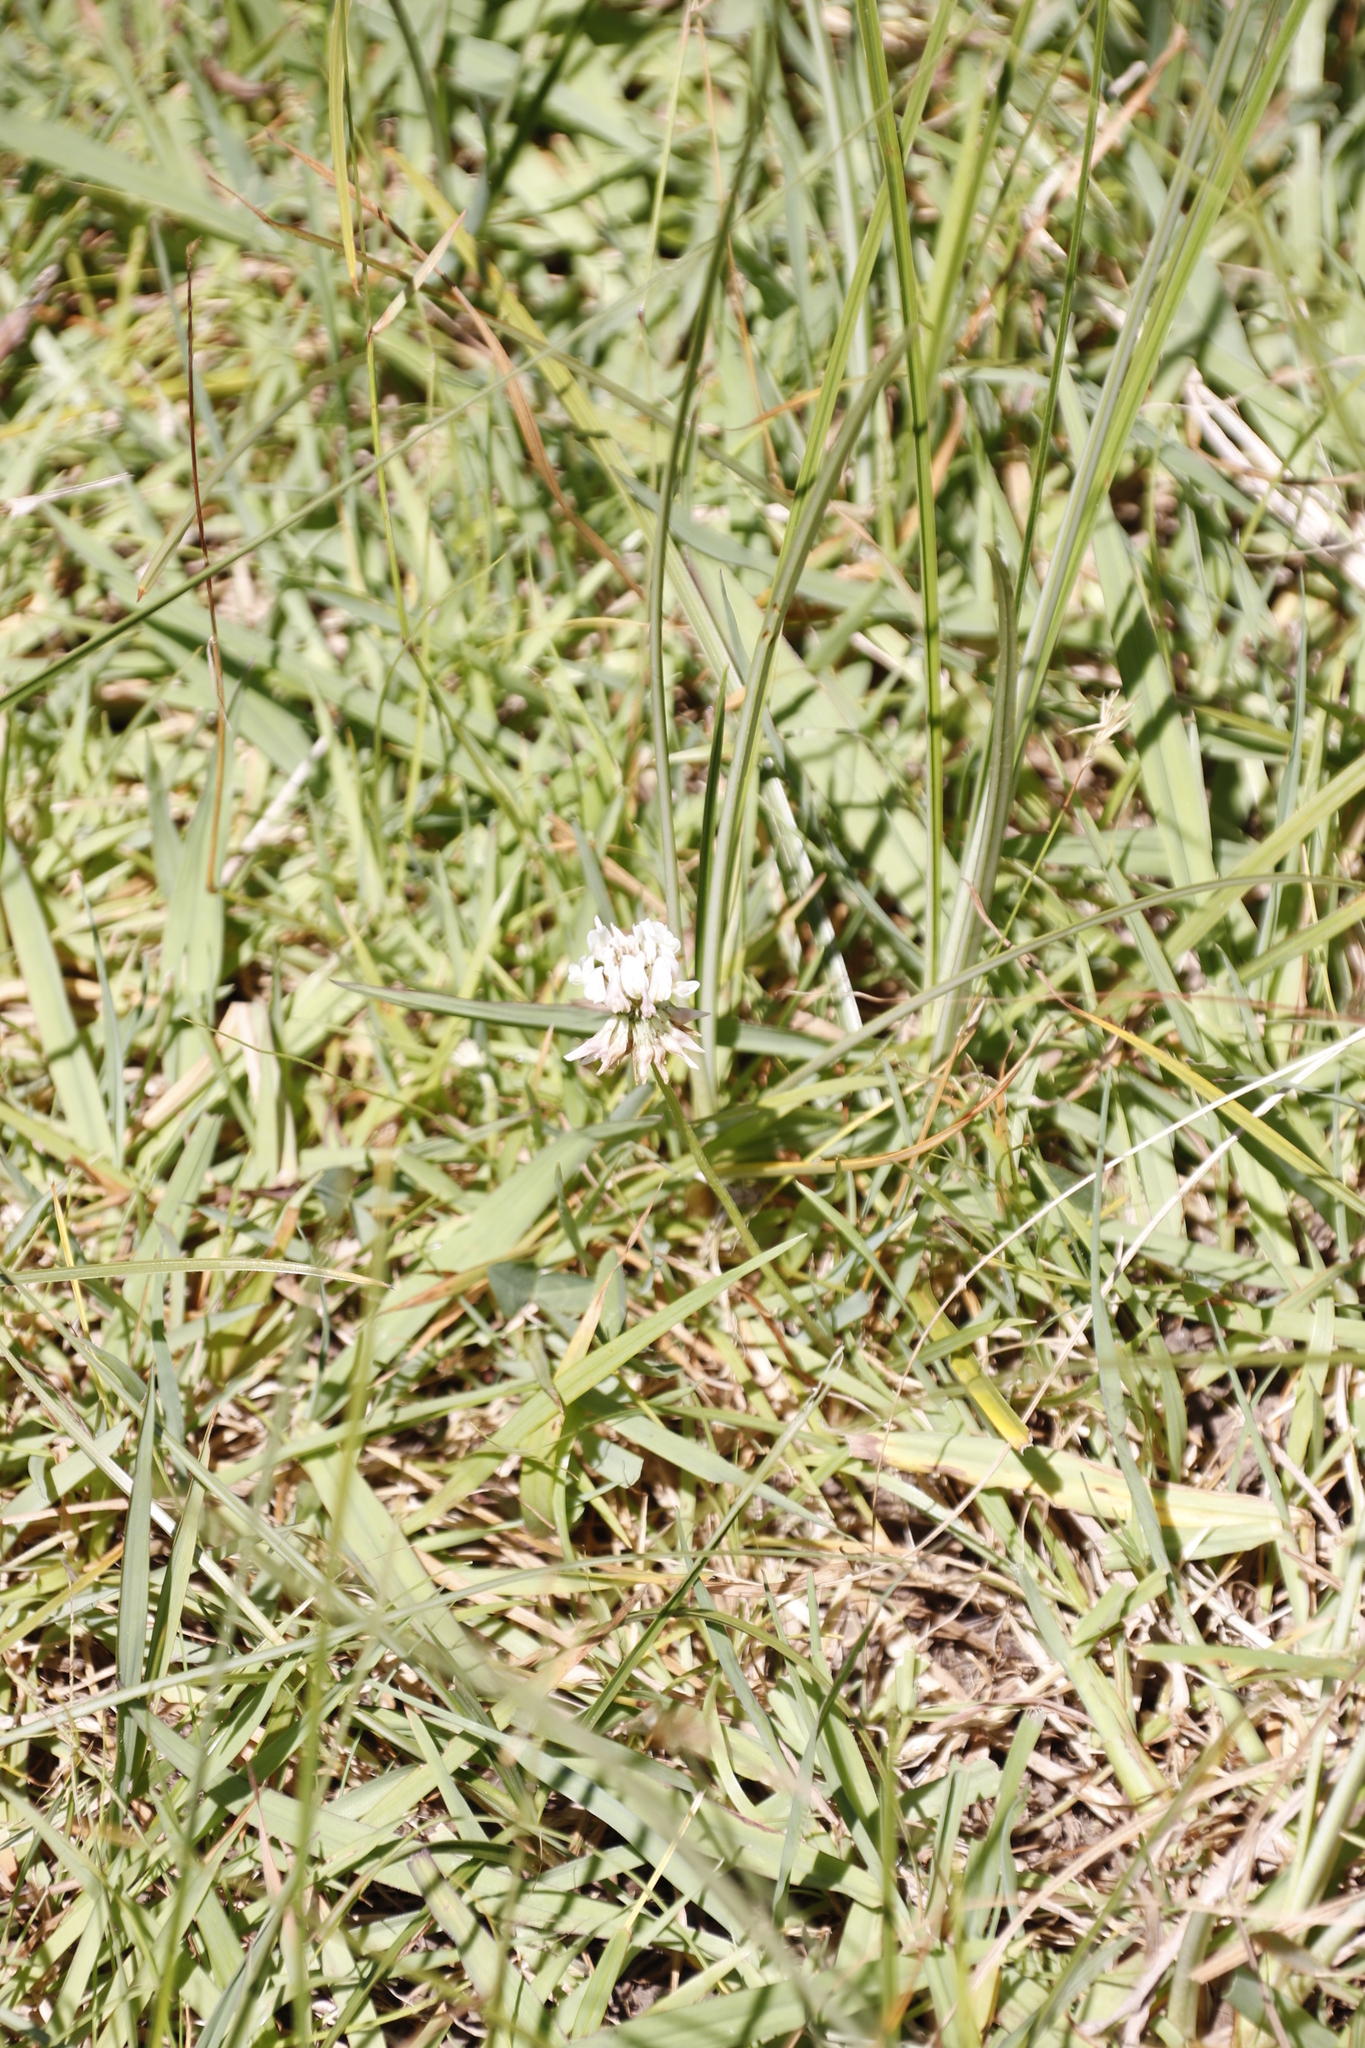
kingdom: Plantae
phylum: Tracheophyta
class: Magnoliopsida
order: Fabales
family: Fabaceae
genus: Trifolium
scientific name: Trifolium repens
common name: White clover
